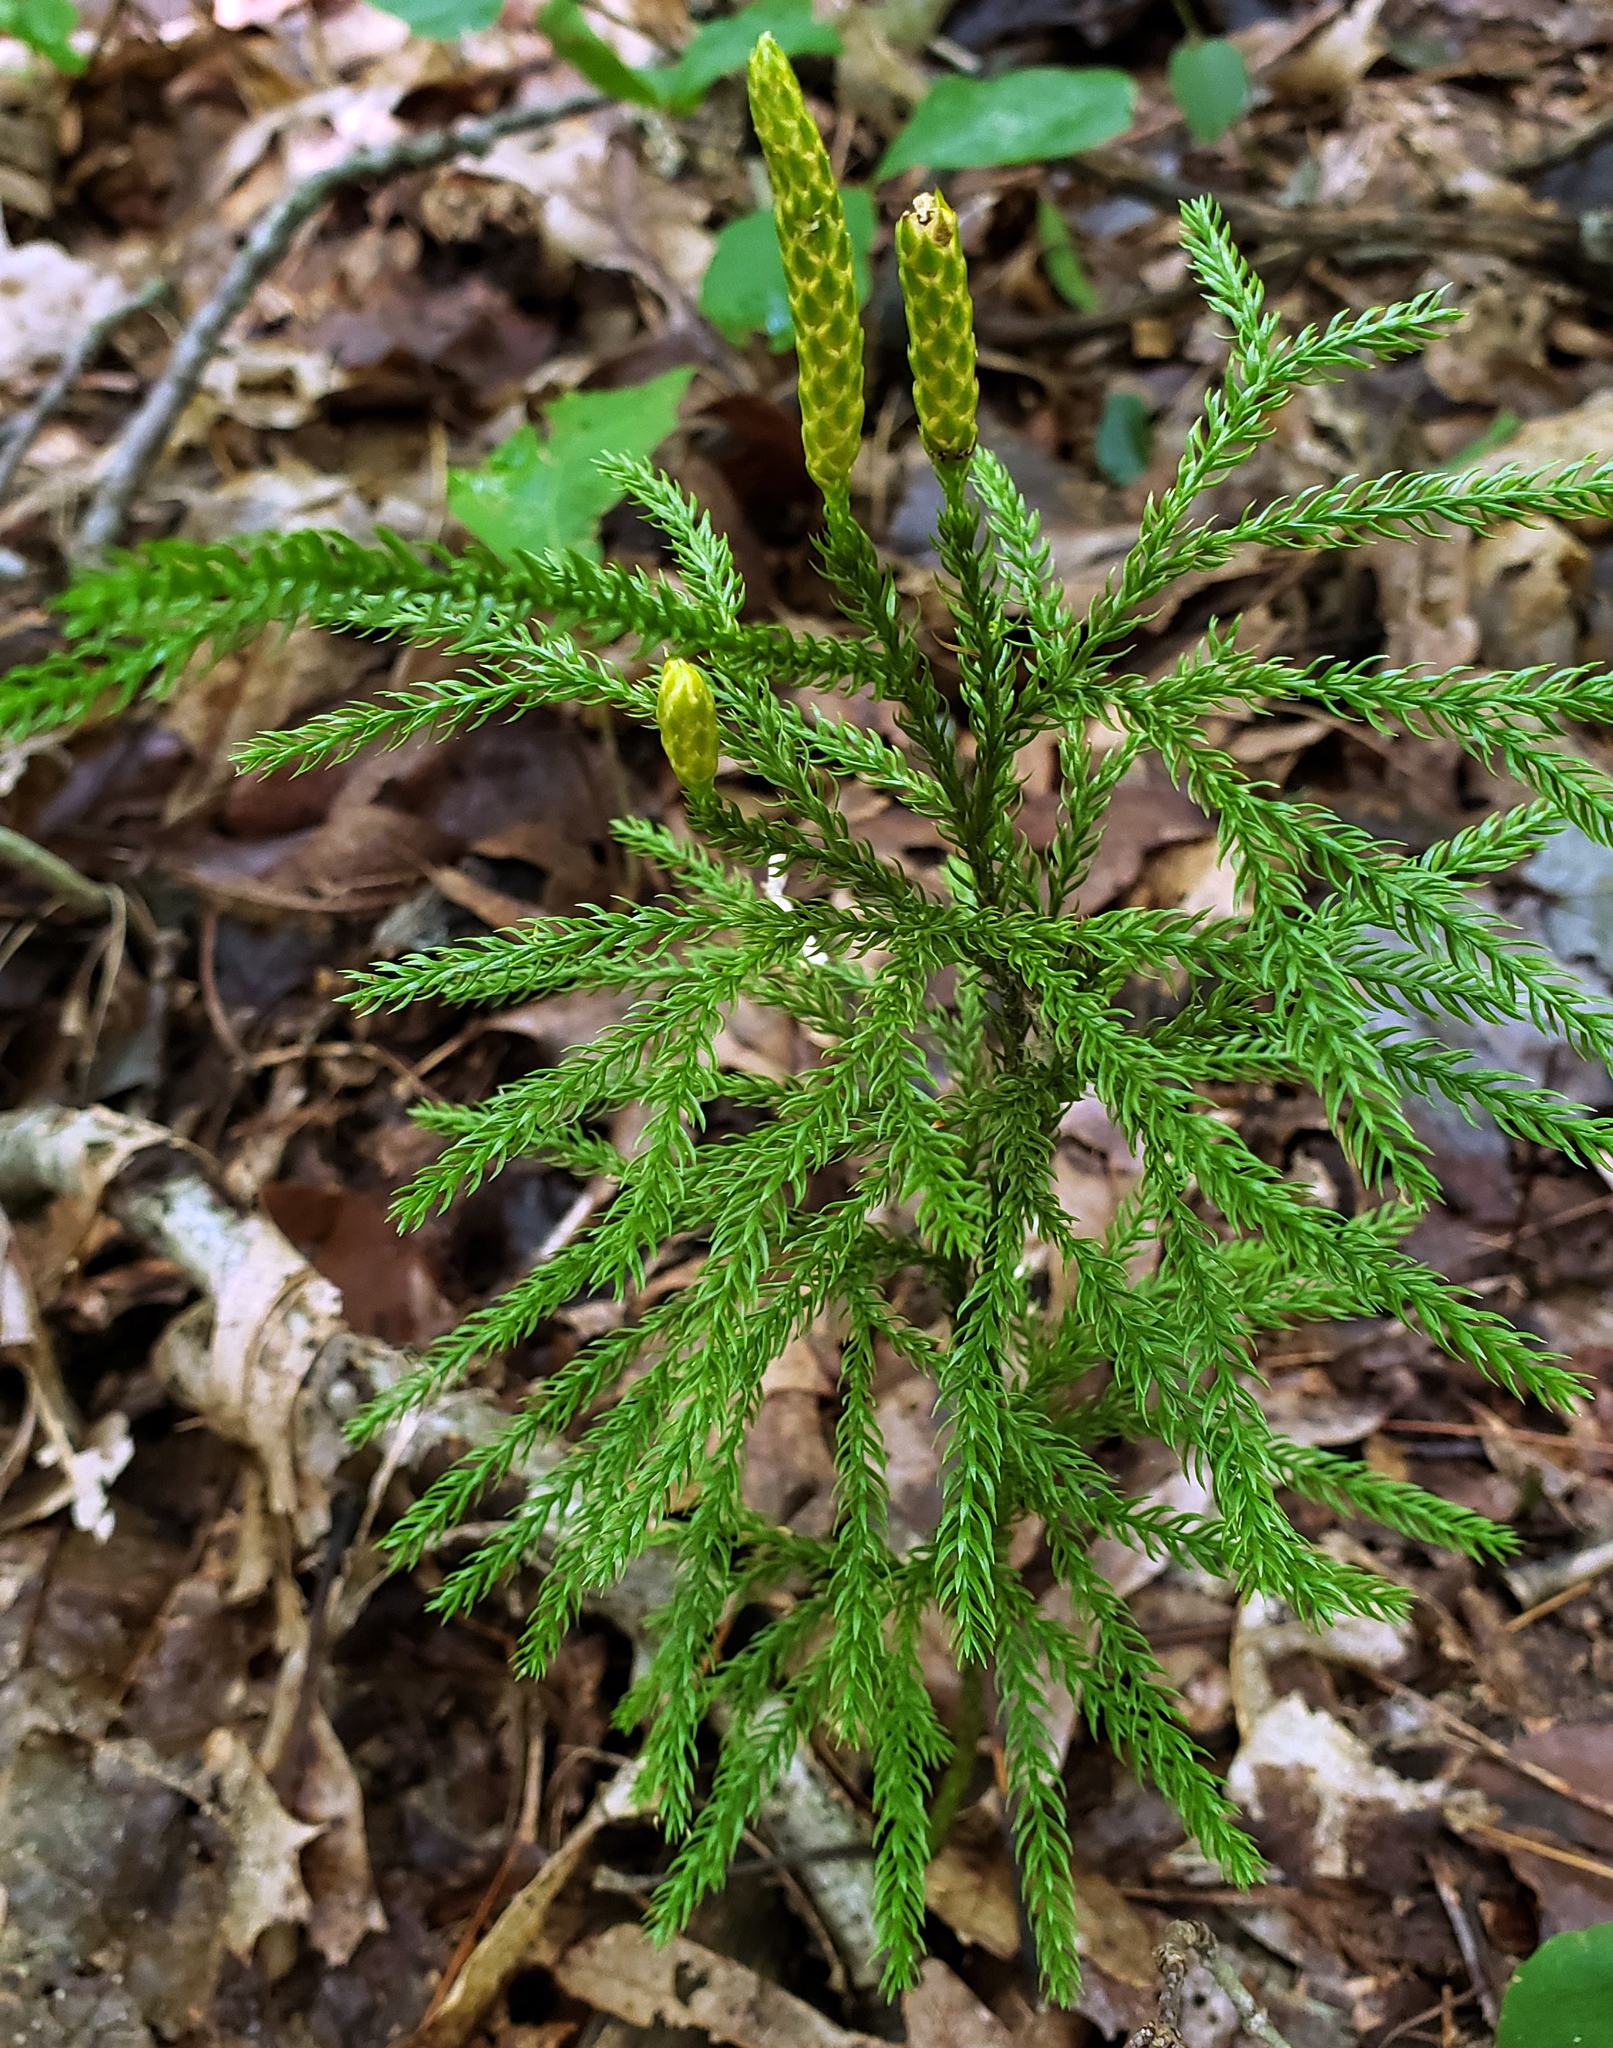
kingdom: Plantae
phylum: Tracheophyta
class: Lycopodiopsida
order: Lycopodiales
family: Lycopodiaceae
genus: Dendrolycopodium
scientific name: Dendrolycopodium hickeyi
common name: Hickey's clubmoss
